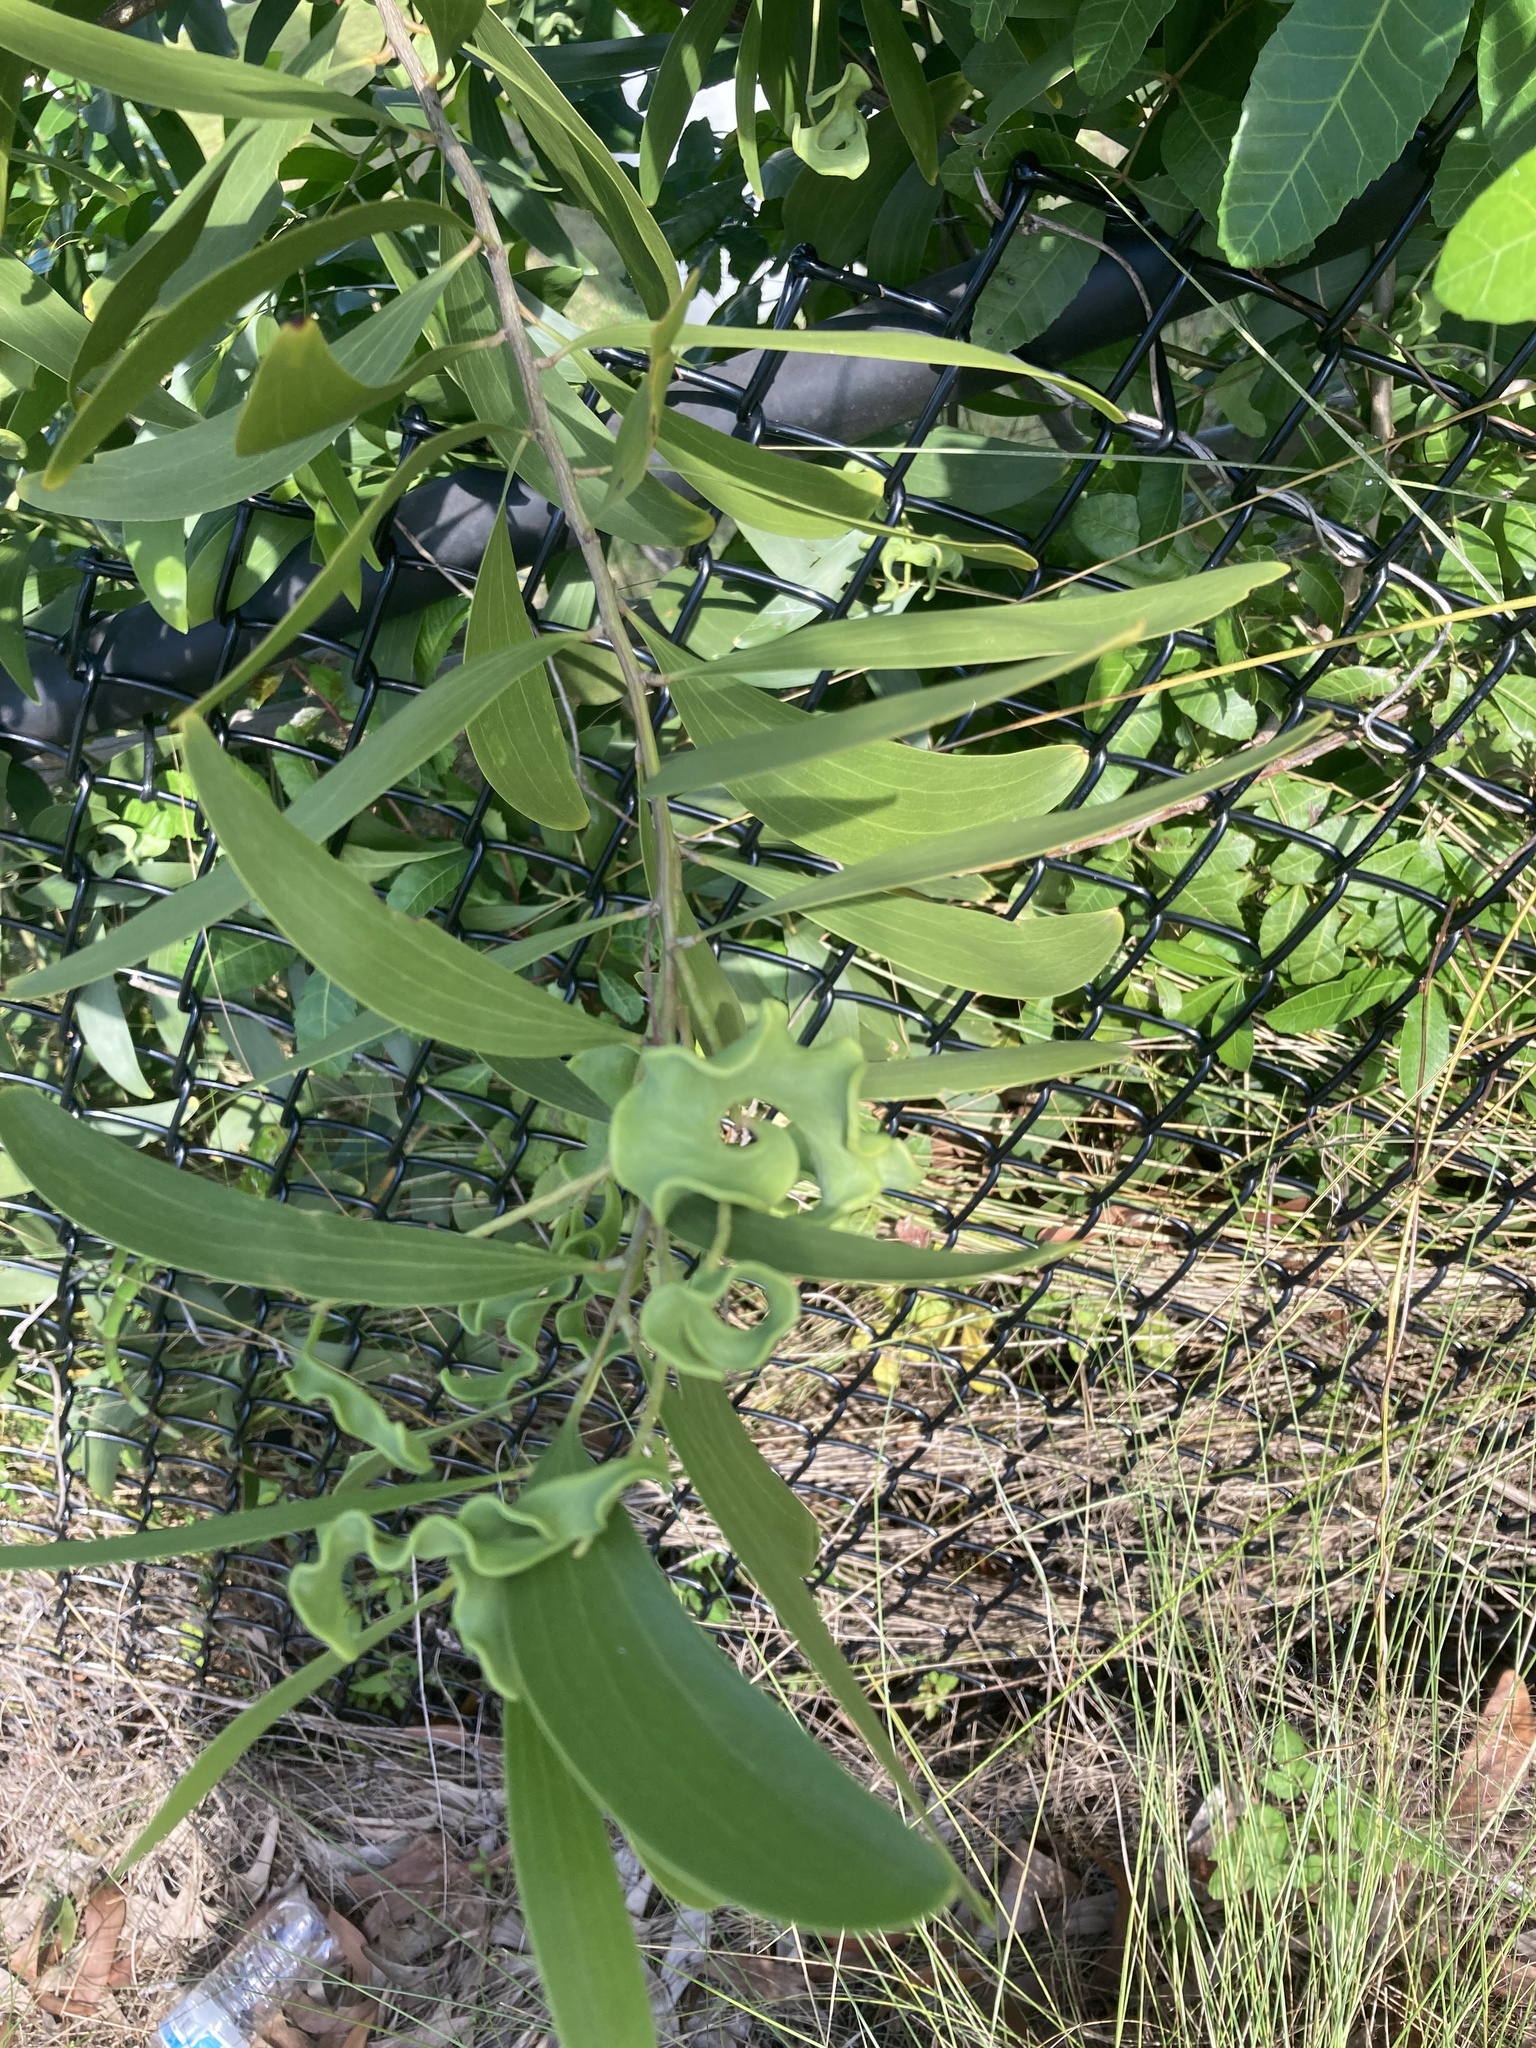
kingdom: Plantae
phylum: Tracheophyta
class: Magnoliopsida
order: Fabales
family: Fabaceae
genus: Acacia
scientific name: Acacia auriculiformis
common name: Earleaf acacia
